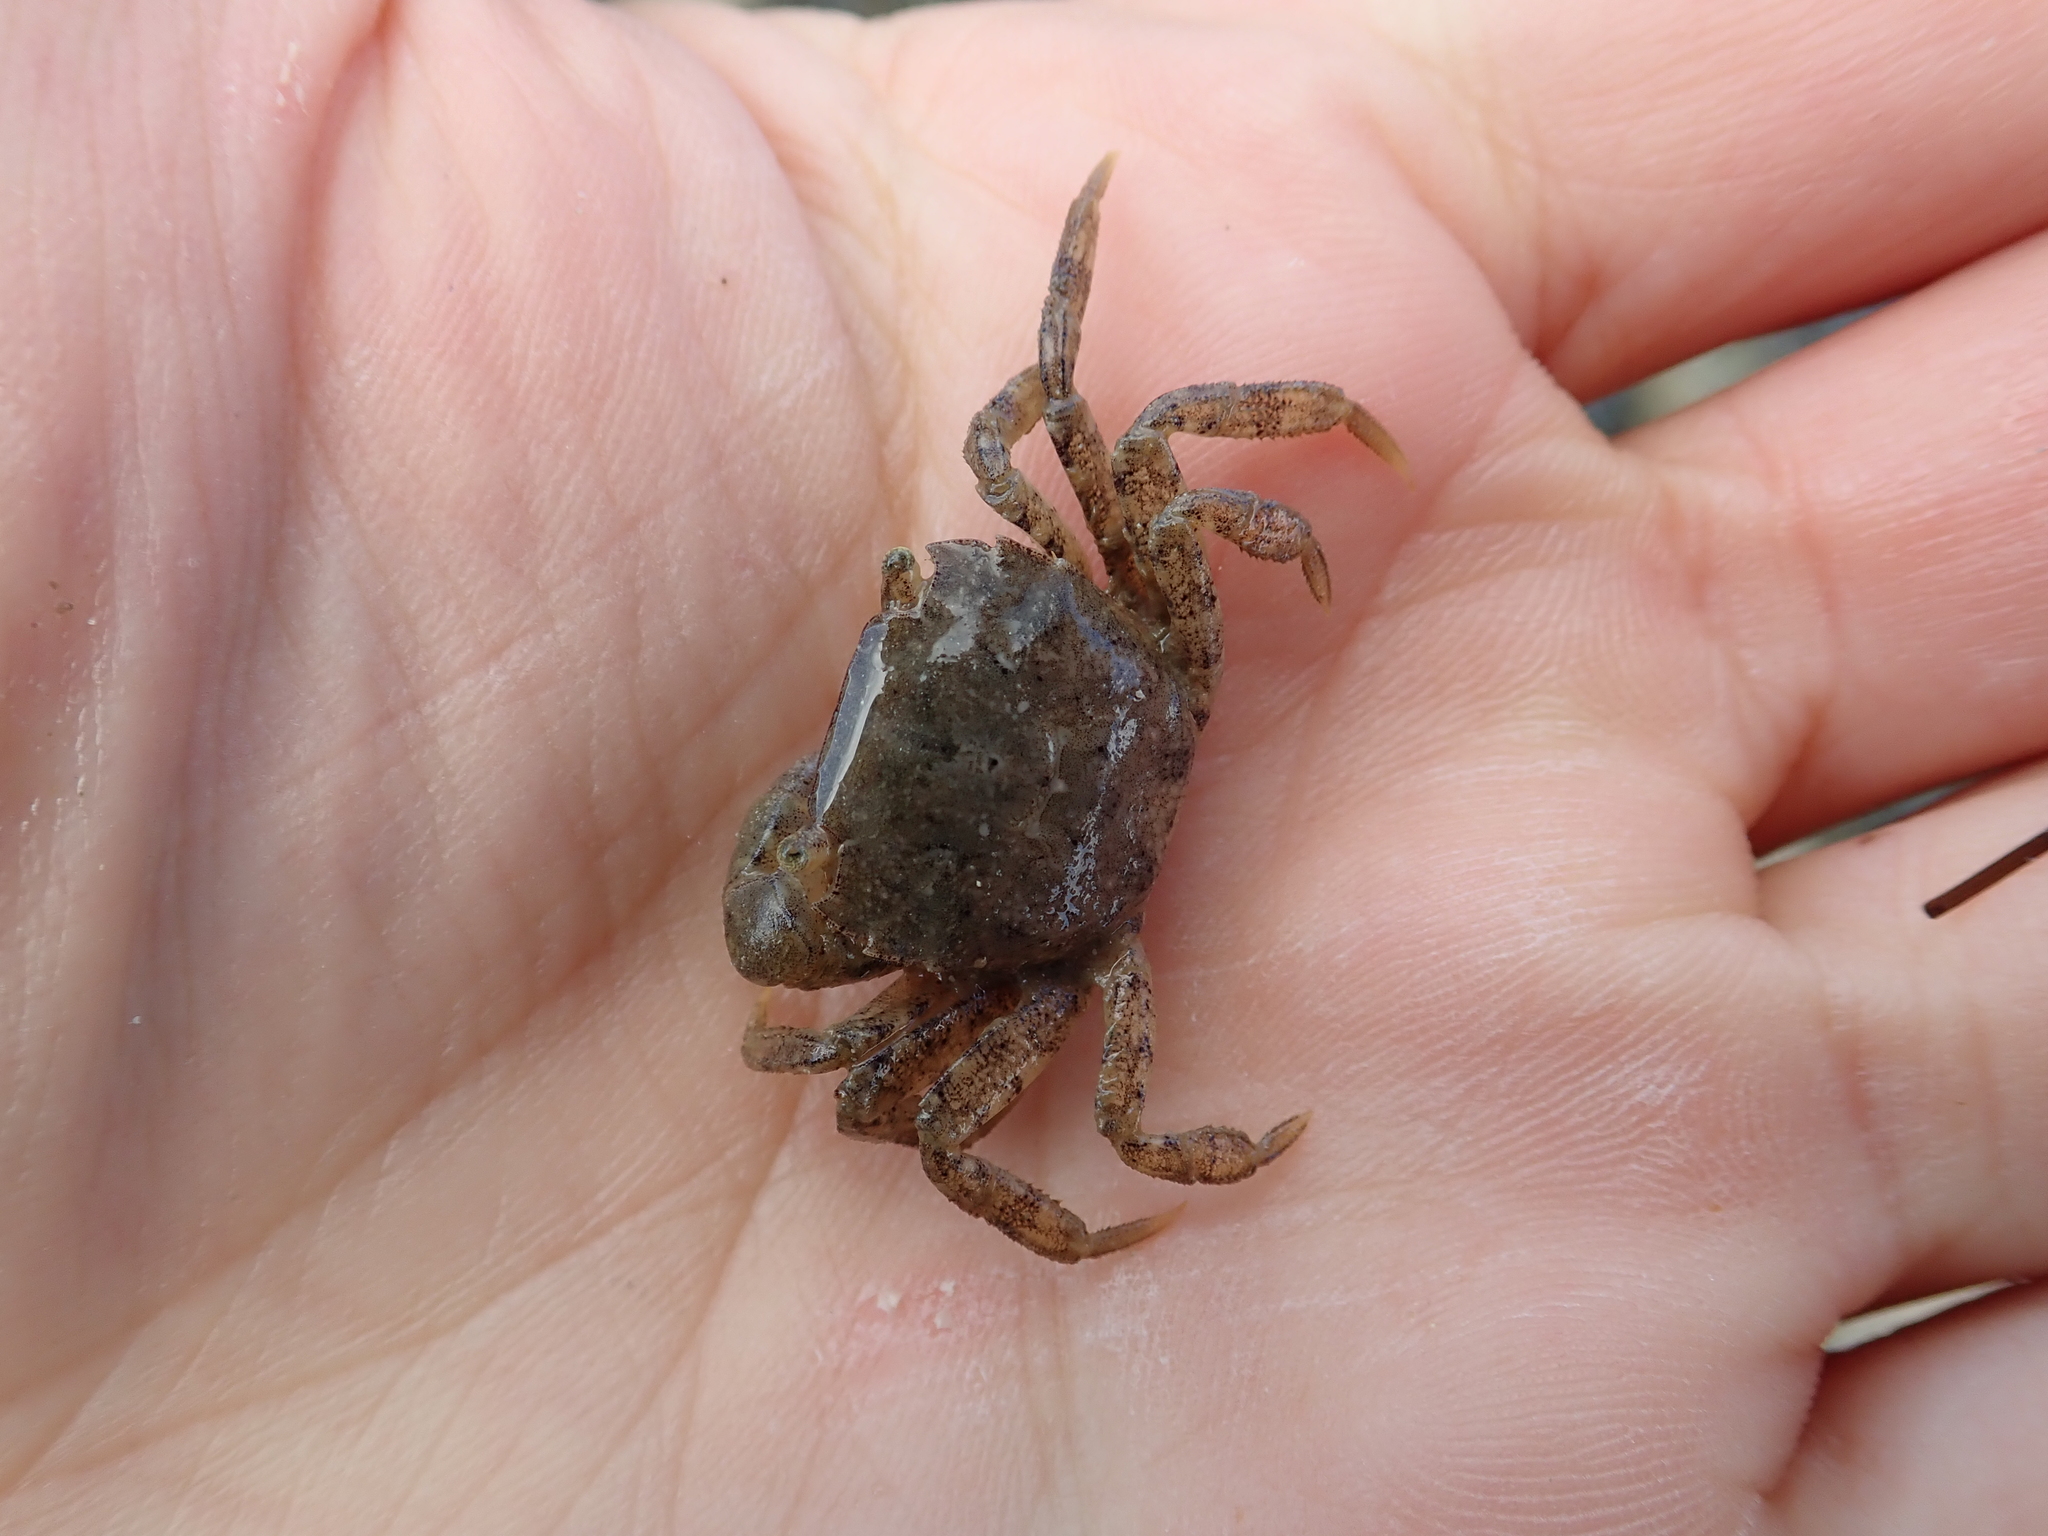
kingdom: Animalia
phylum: Arthropoda
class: Malacostraca
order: Decapoda
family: Varunidae
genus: Hemigrapsus
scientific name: Hemigrapsus takanoi
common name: Asian brush crab
